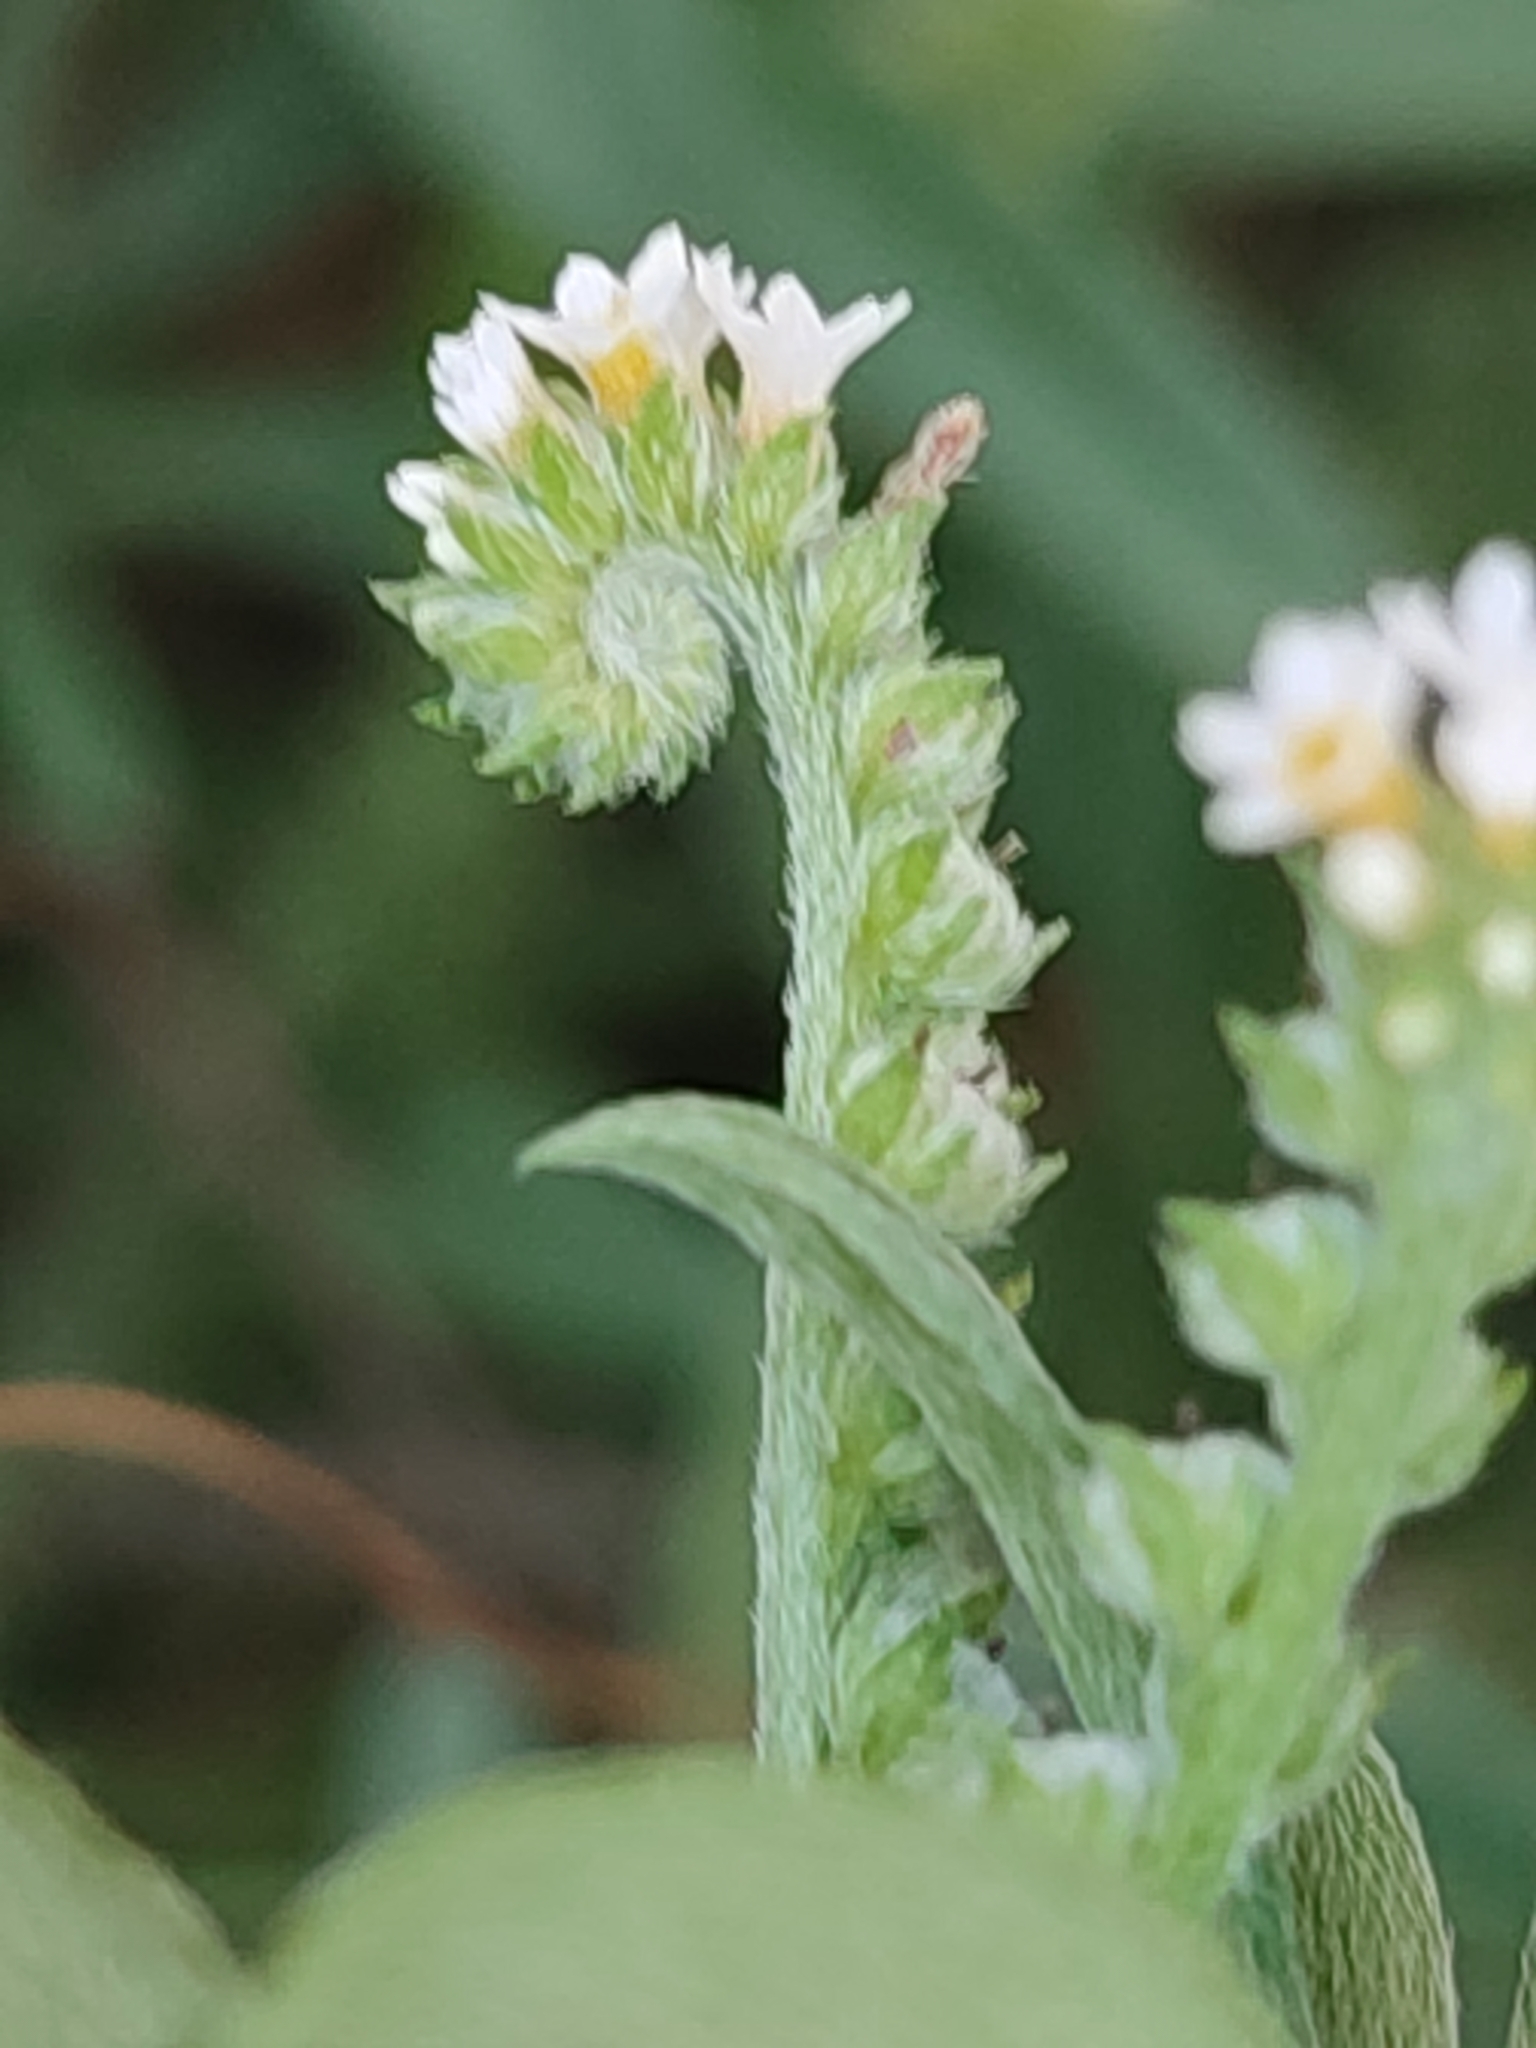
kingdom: Plantae
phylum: Tracheophyta
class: Magnoliopsida
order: Boraginales
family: Heliotropiaceae
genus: Euploca
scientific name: Euploca procumbens
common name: Fourspike heliotrope
